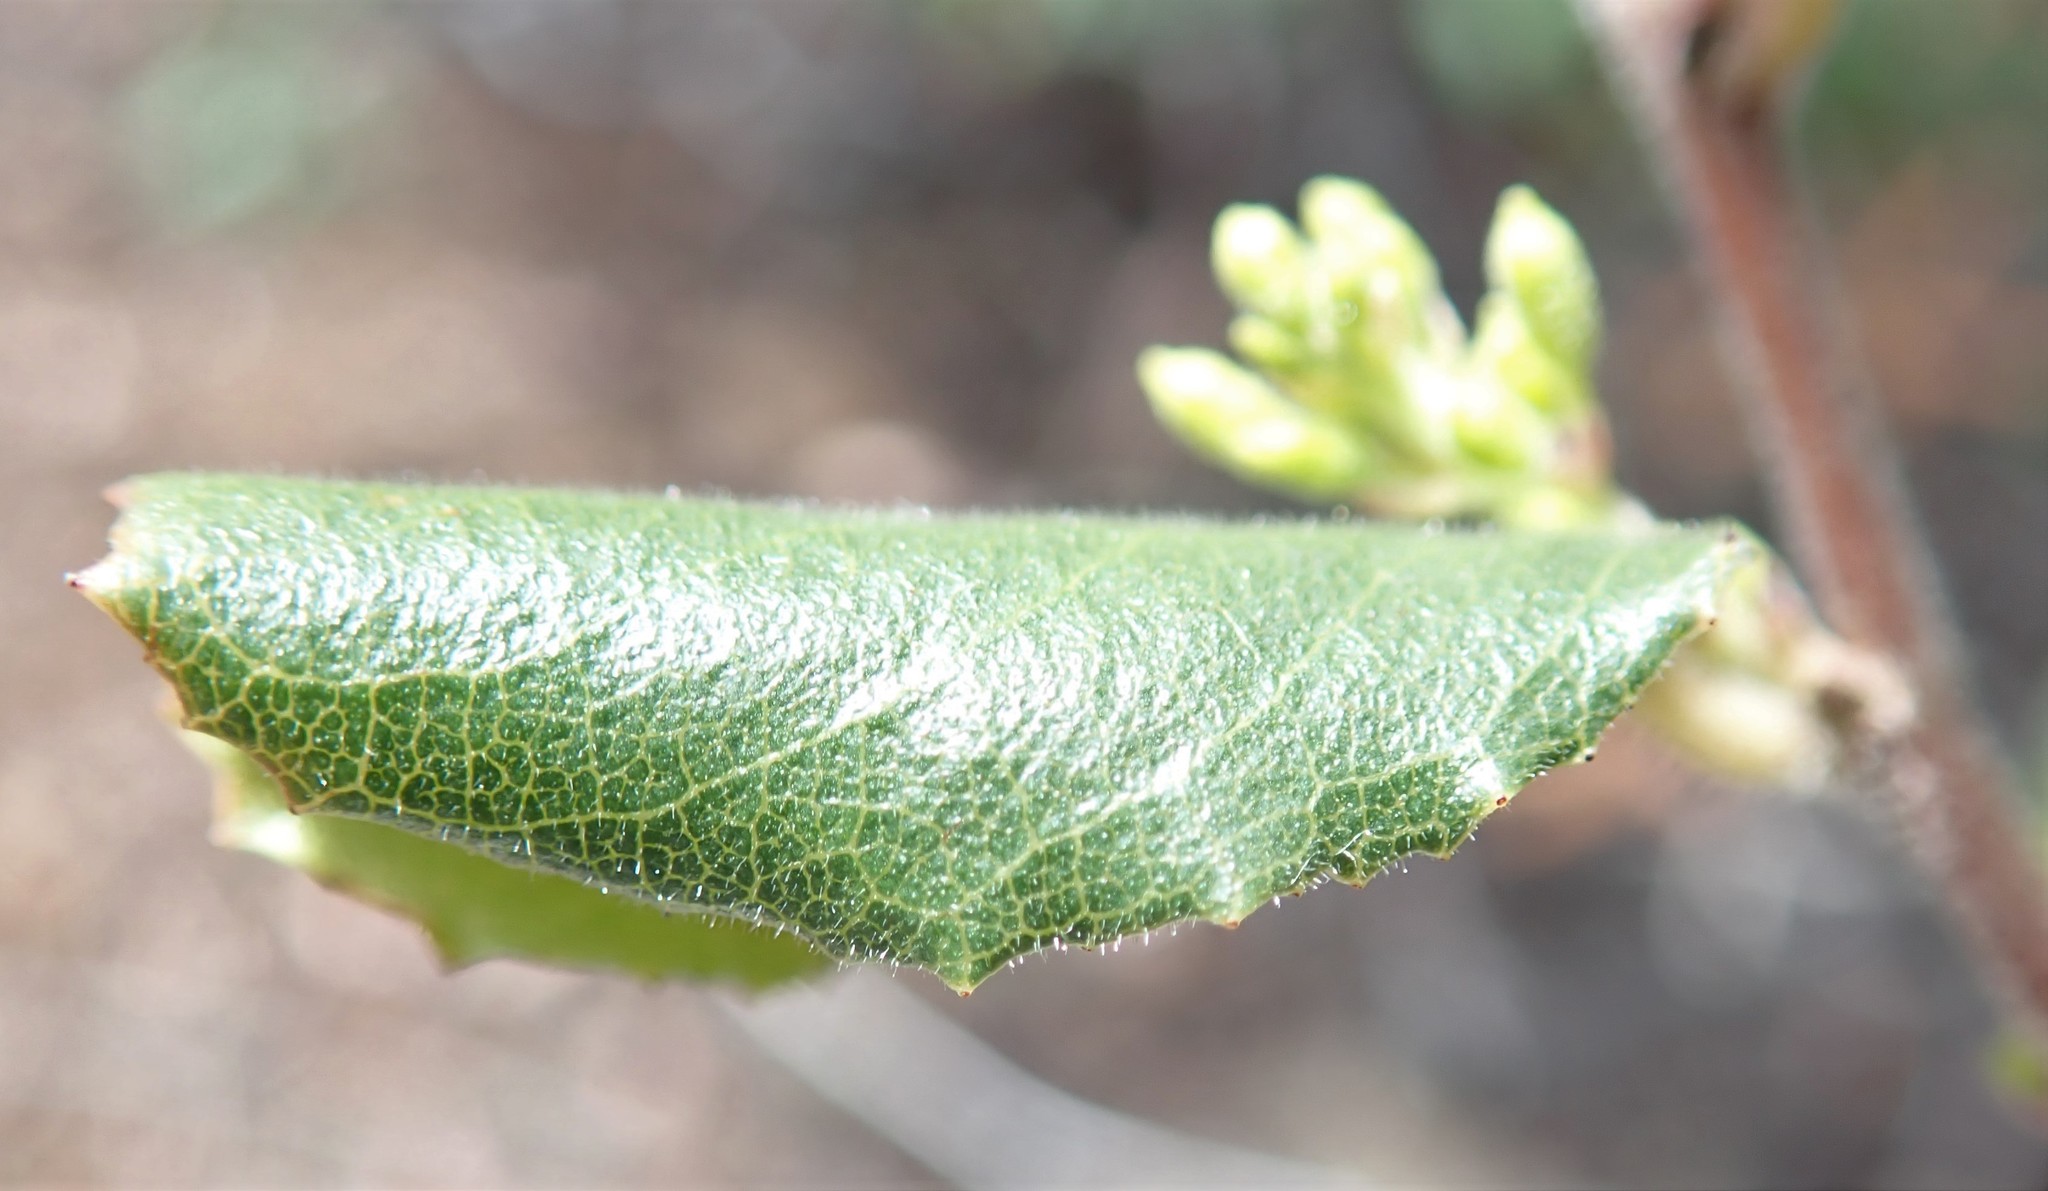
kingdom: Plantae
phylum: Tracheophyta
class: Magnoliopsida
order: Rosales
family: Rhamnaceae
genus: Endotropis
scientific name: Endotropis crocea
